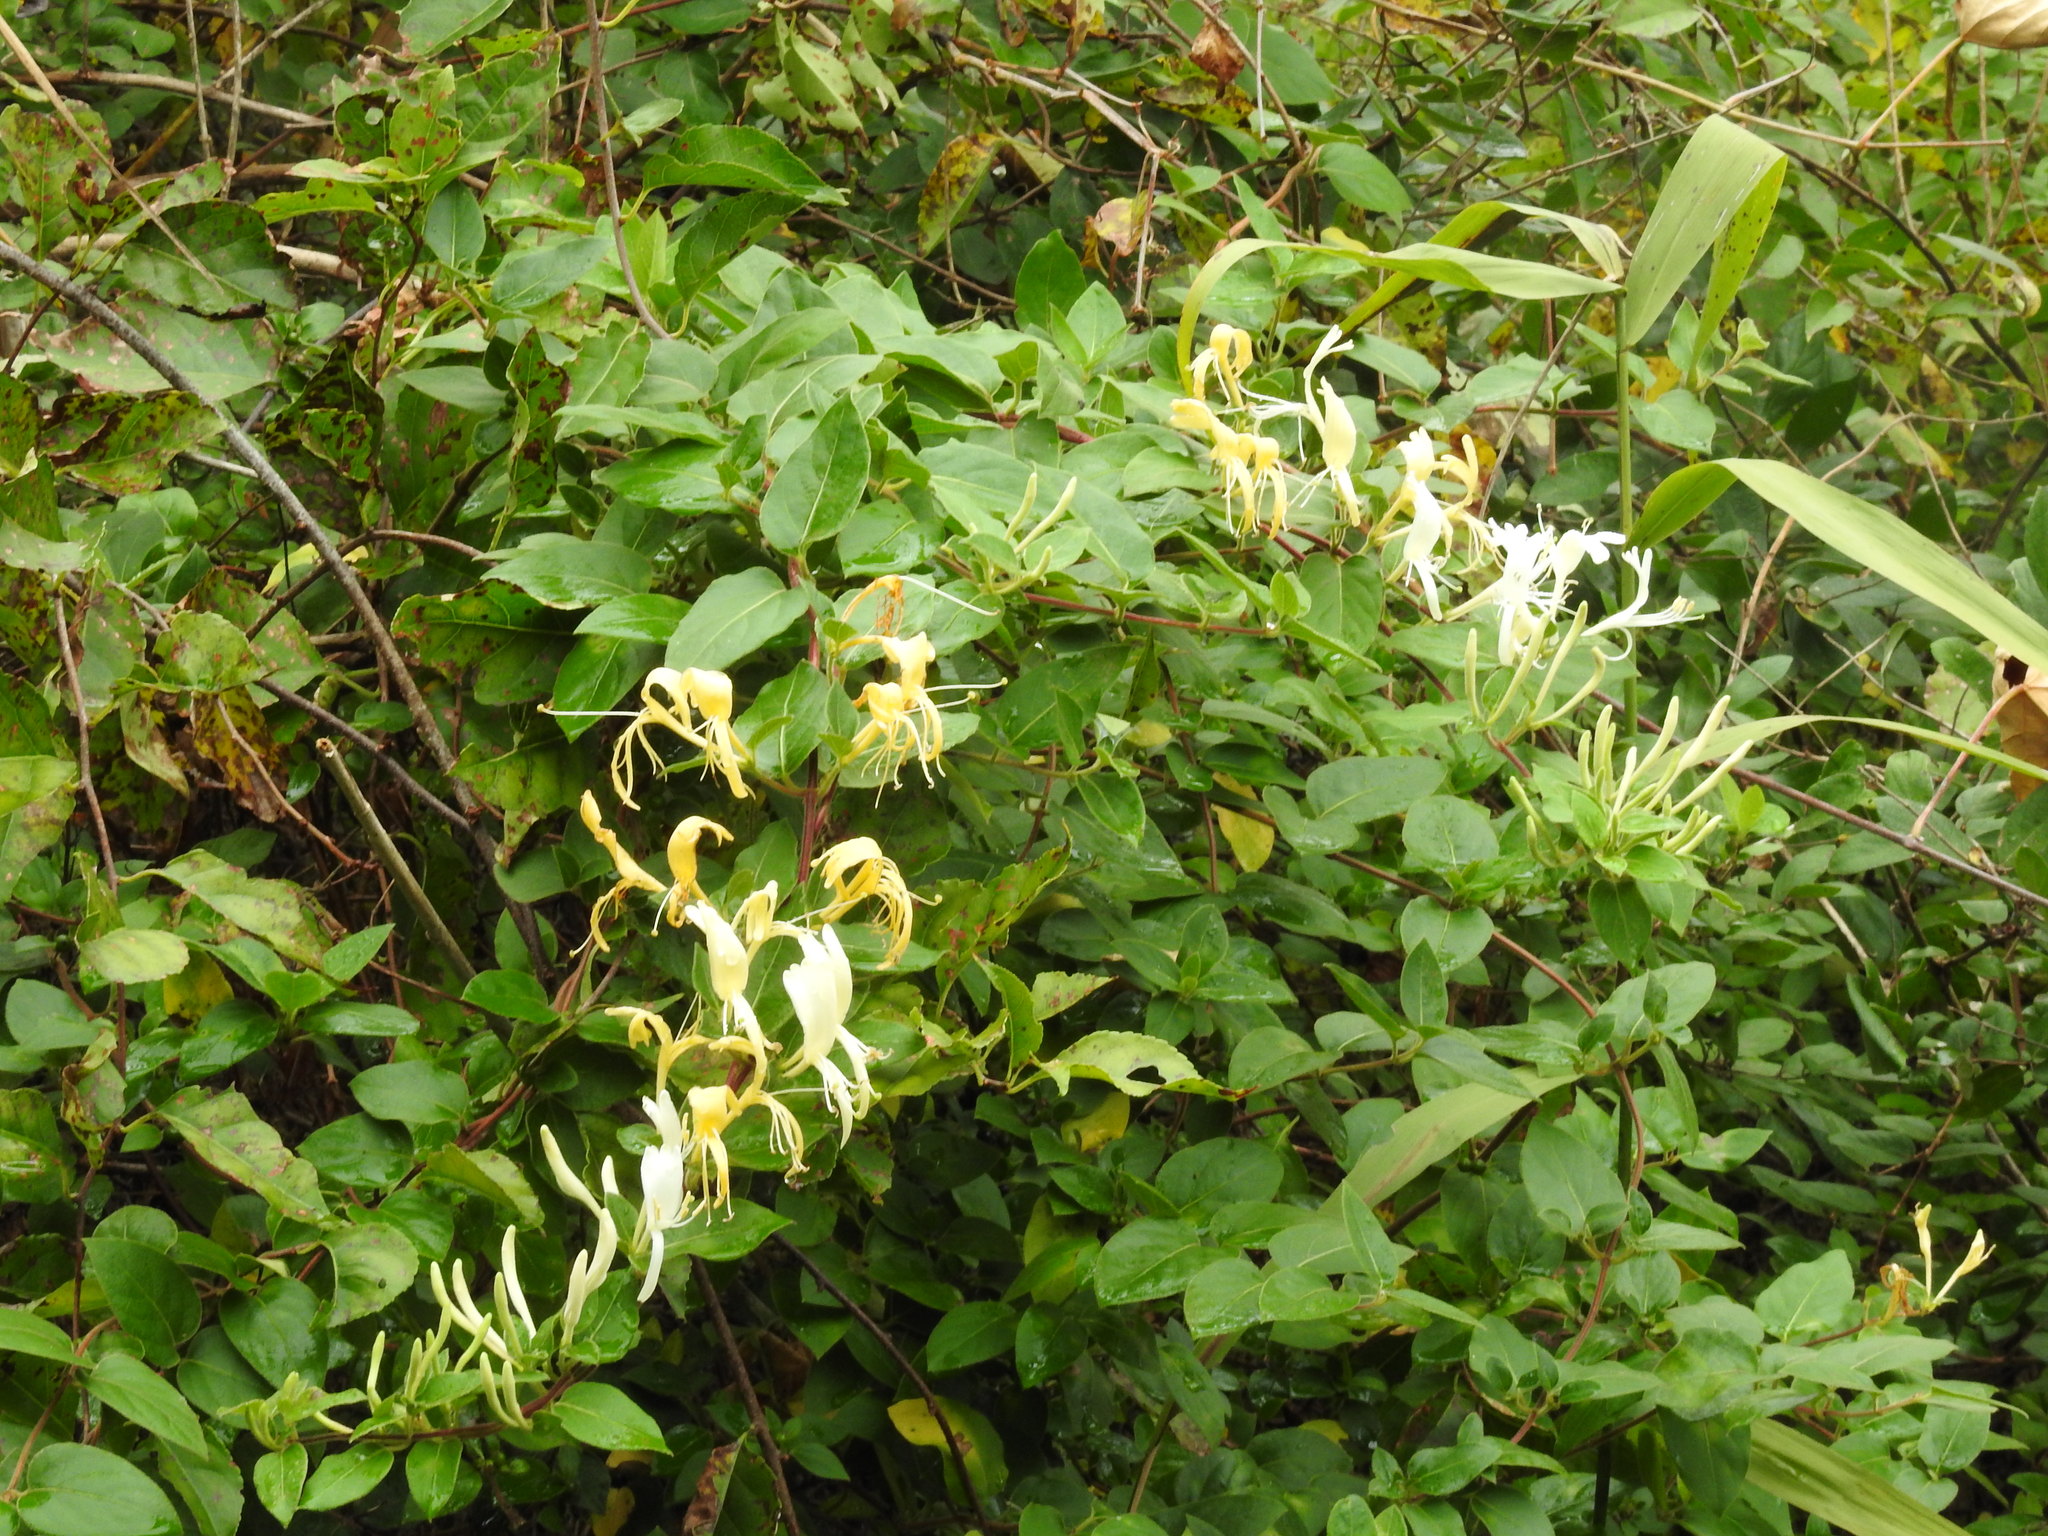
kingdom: Plantae
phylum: Tracheophyta
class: Magnoliopsida
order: Dipsacales
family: Caprifoliaceae
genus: Lonicera
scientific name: Lonicera japonica
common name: Japanese honeysuckle
